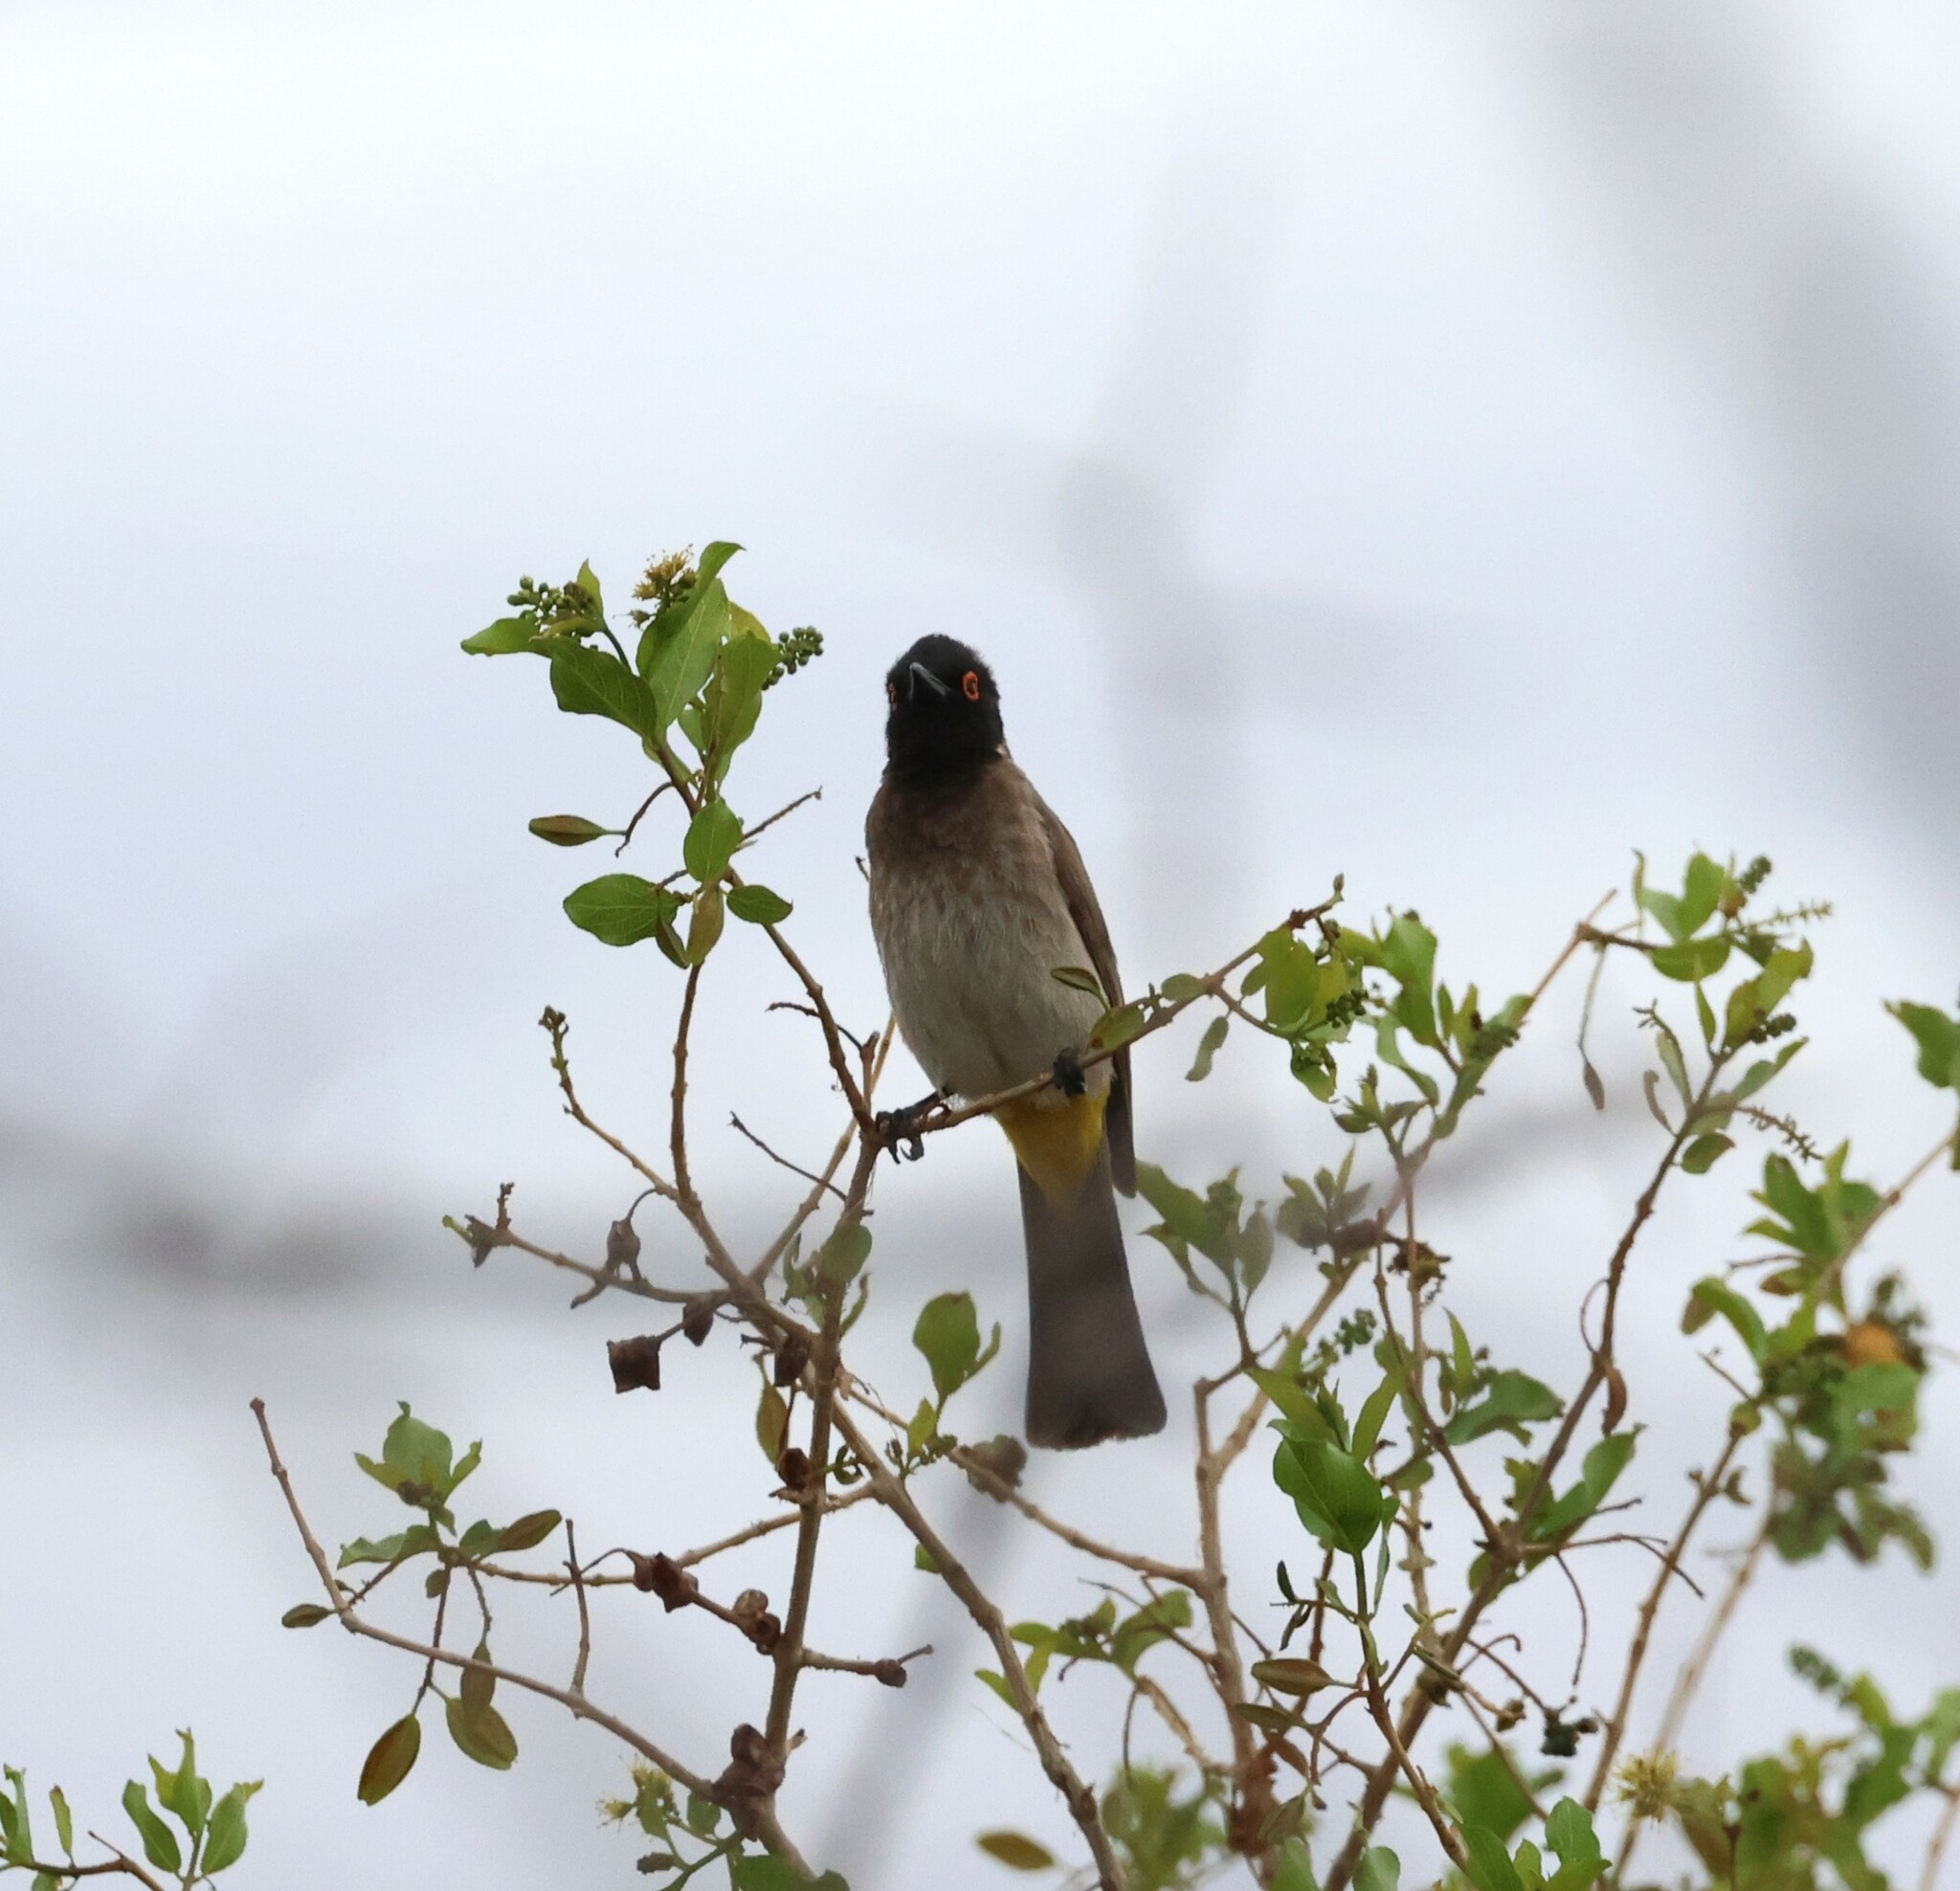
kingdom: Animalia
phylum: Chordata
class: Aves
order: Passeriformes
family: Pycnonotidae
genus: Pycnonotus
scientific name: Pycnonotus nigricans
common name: African red-eyed bulbul
